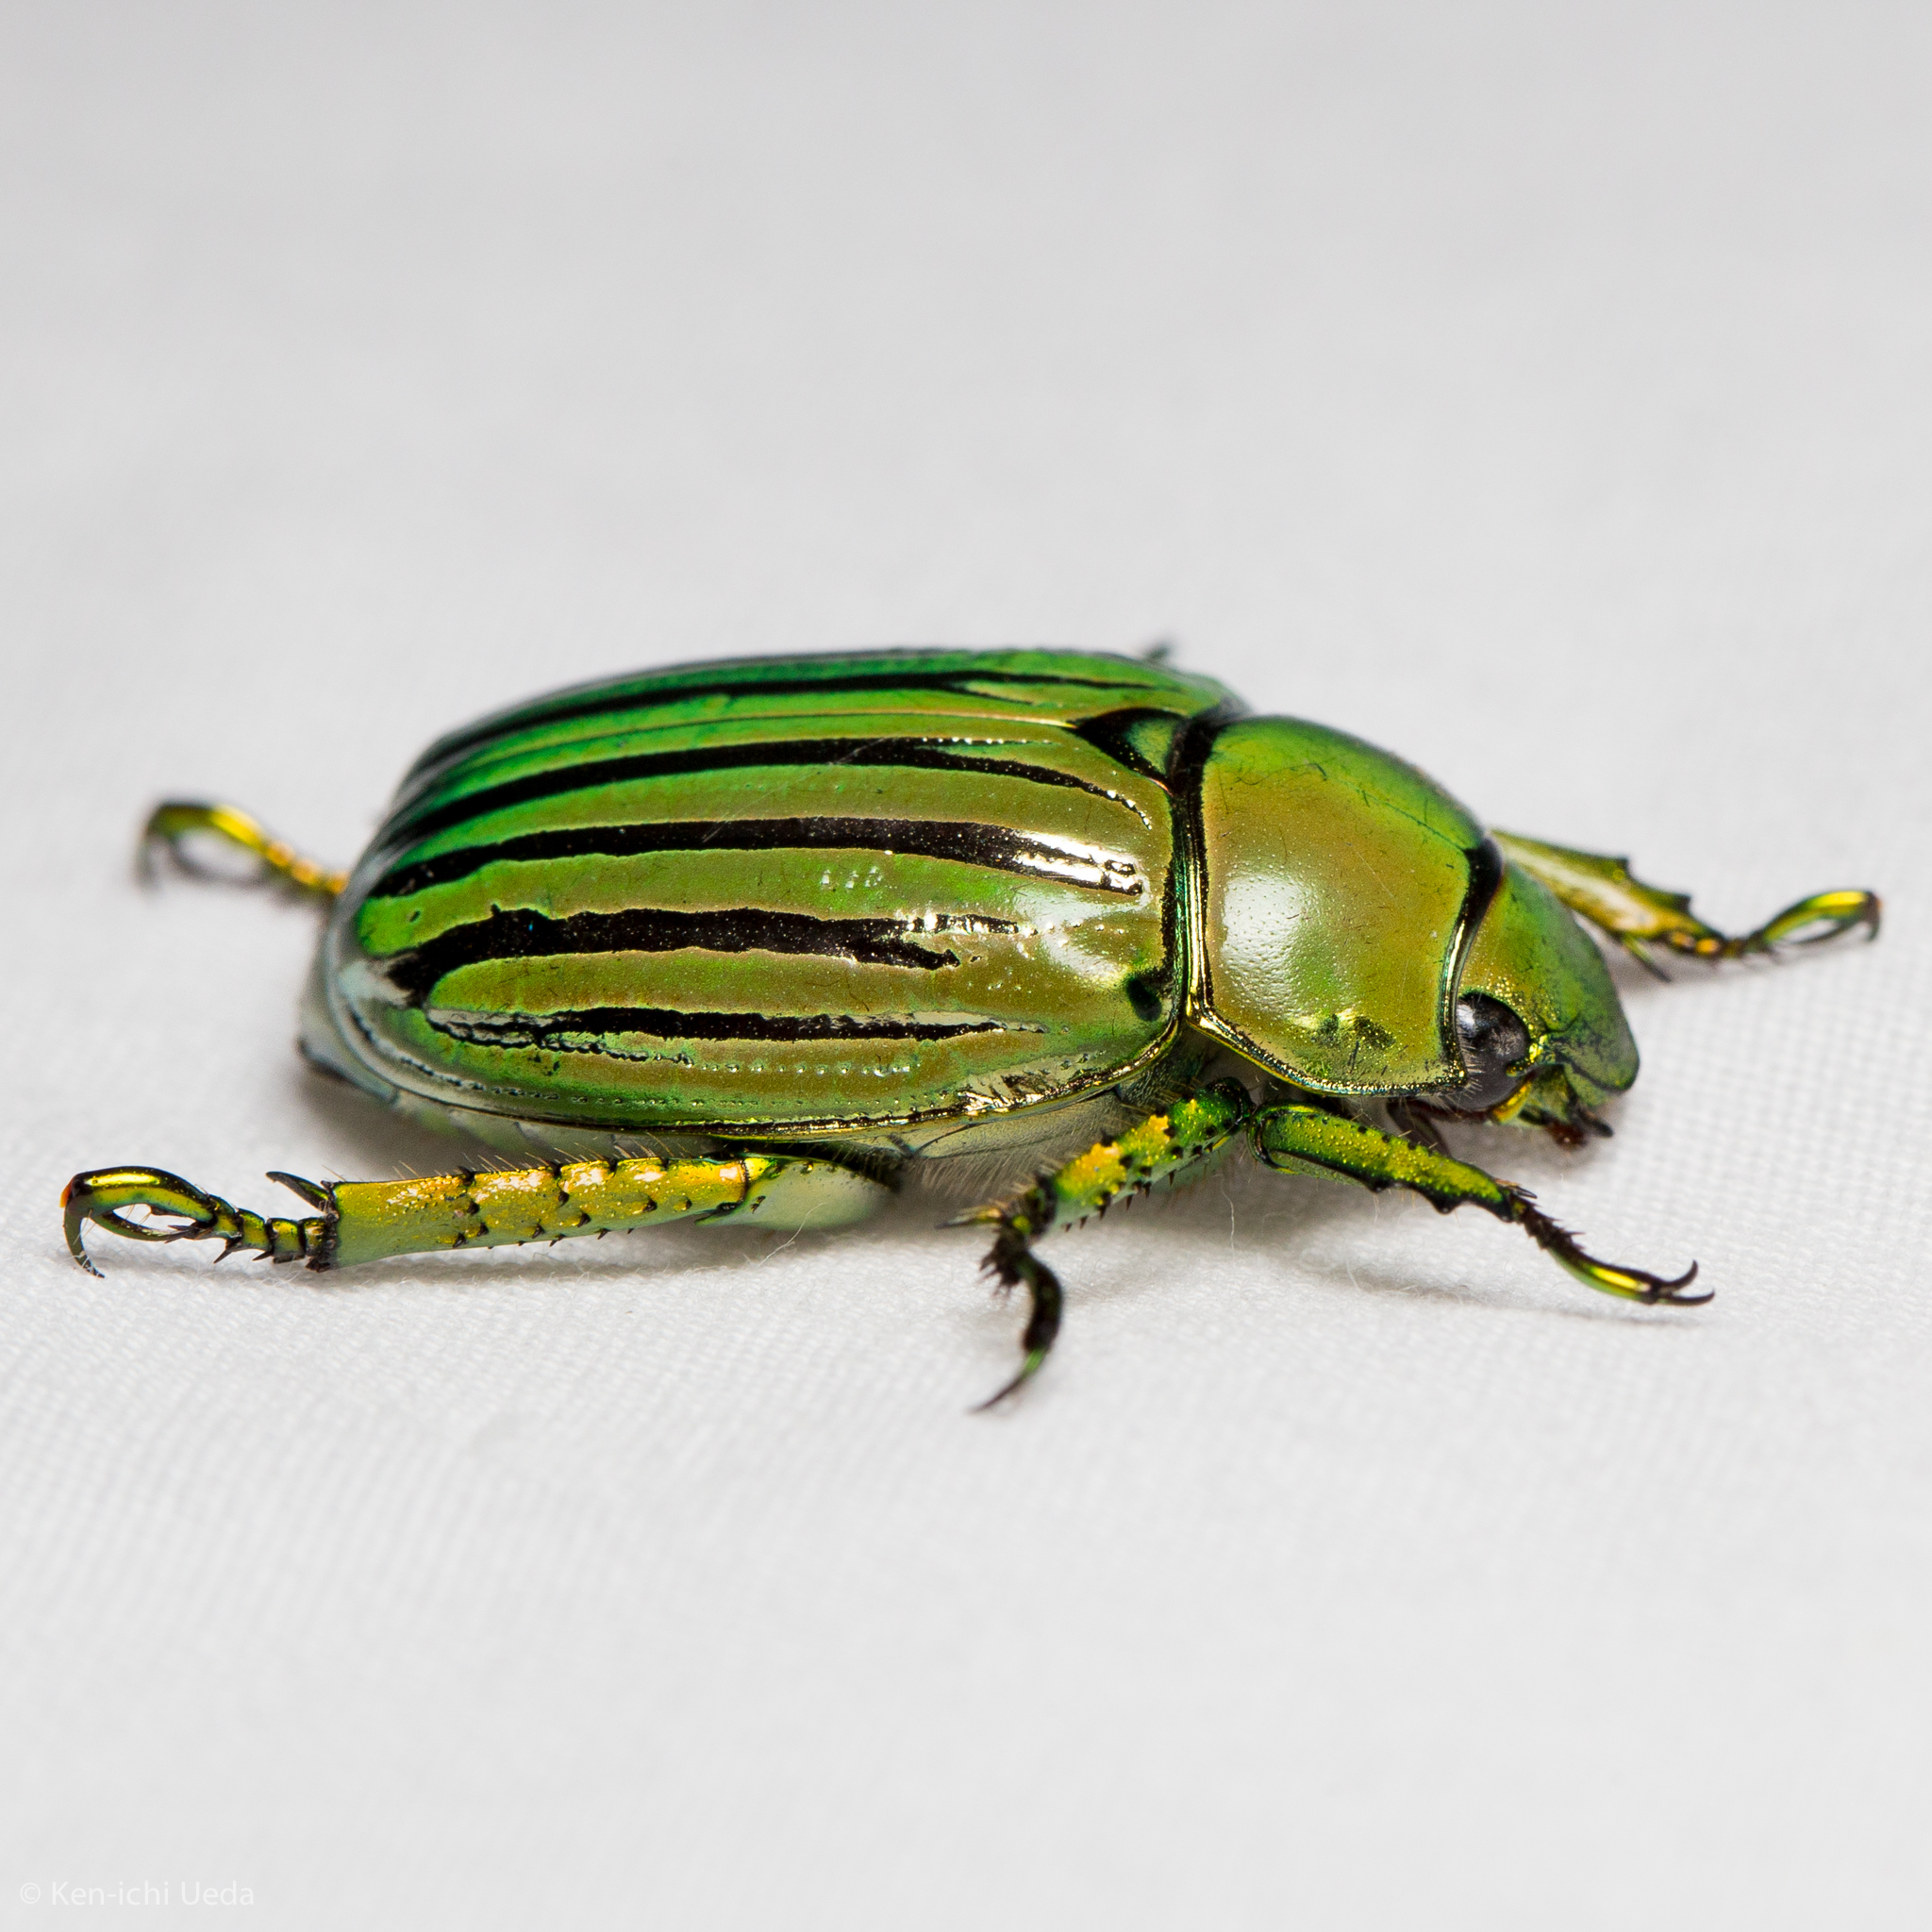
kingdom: Animalia
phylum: Arthropoda
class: Insecta
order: Coleoptera
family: Scarabaeidae
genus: Chrysina
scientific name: Chrysina gloriosa
